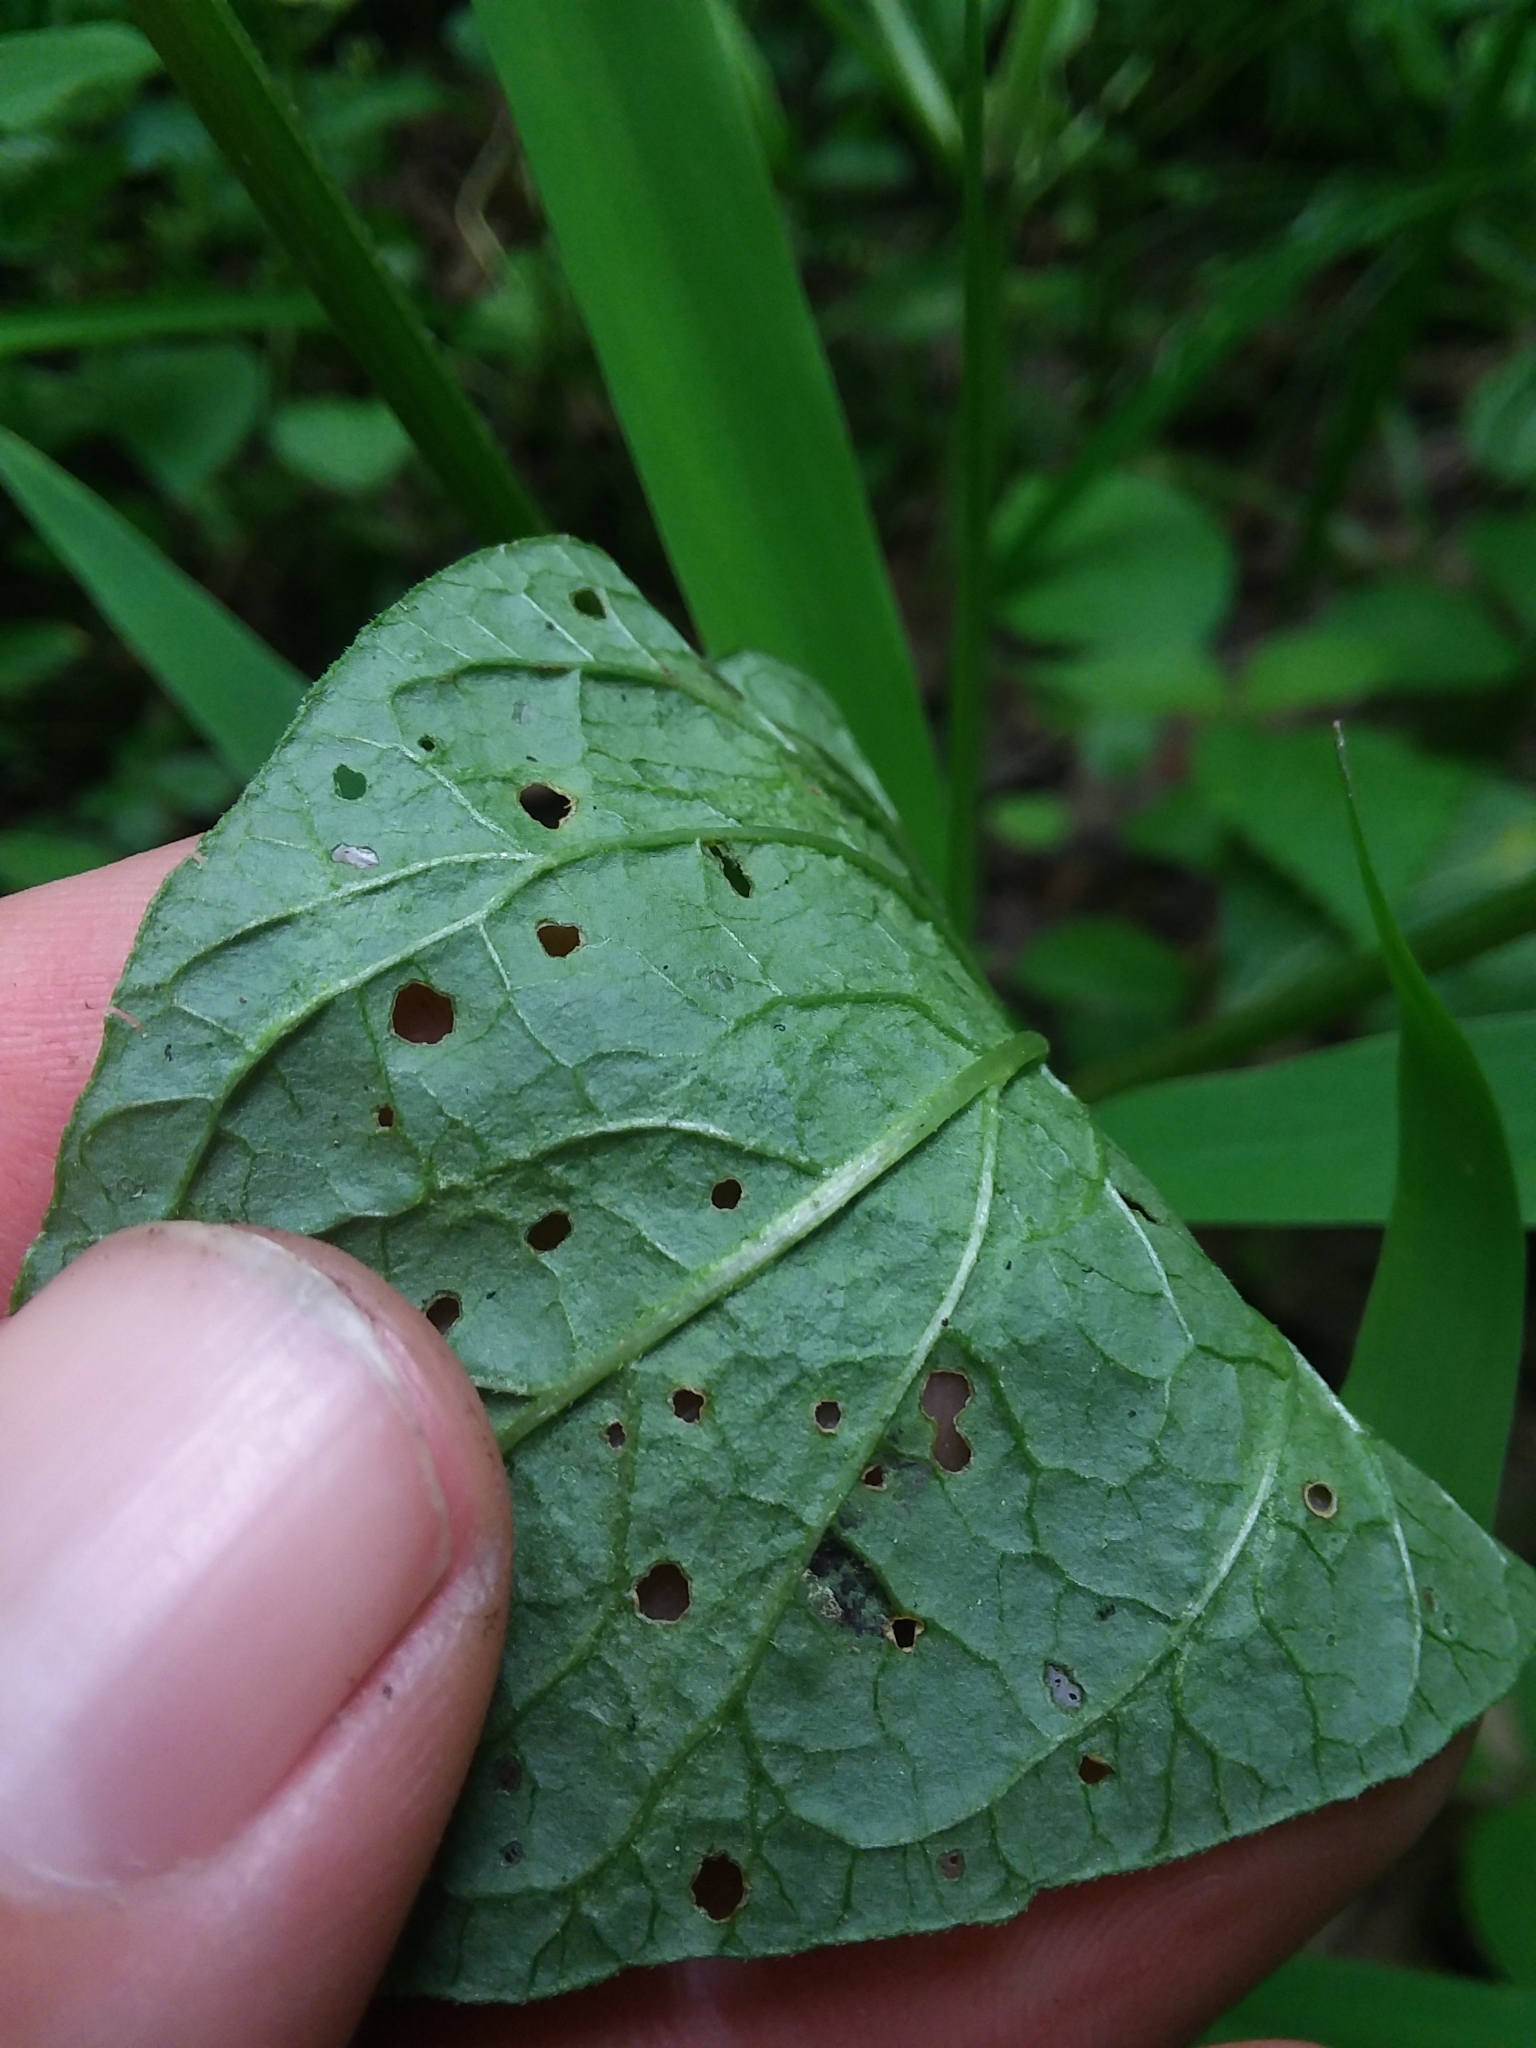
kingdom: Plantae
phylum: Tracheophyta
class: Magnoliopsida
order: Solanales
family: Solanaceae
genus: Physalis
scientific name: Physalis longifolia
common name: Common ground-cherry
